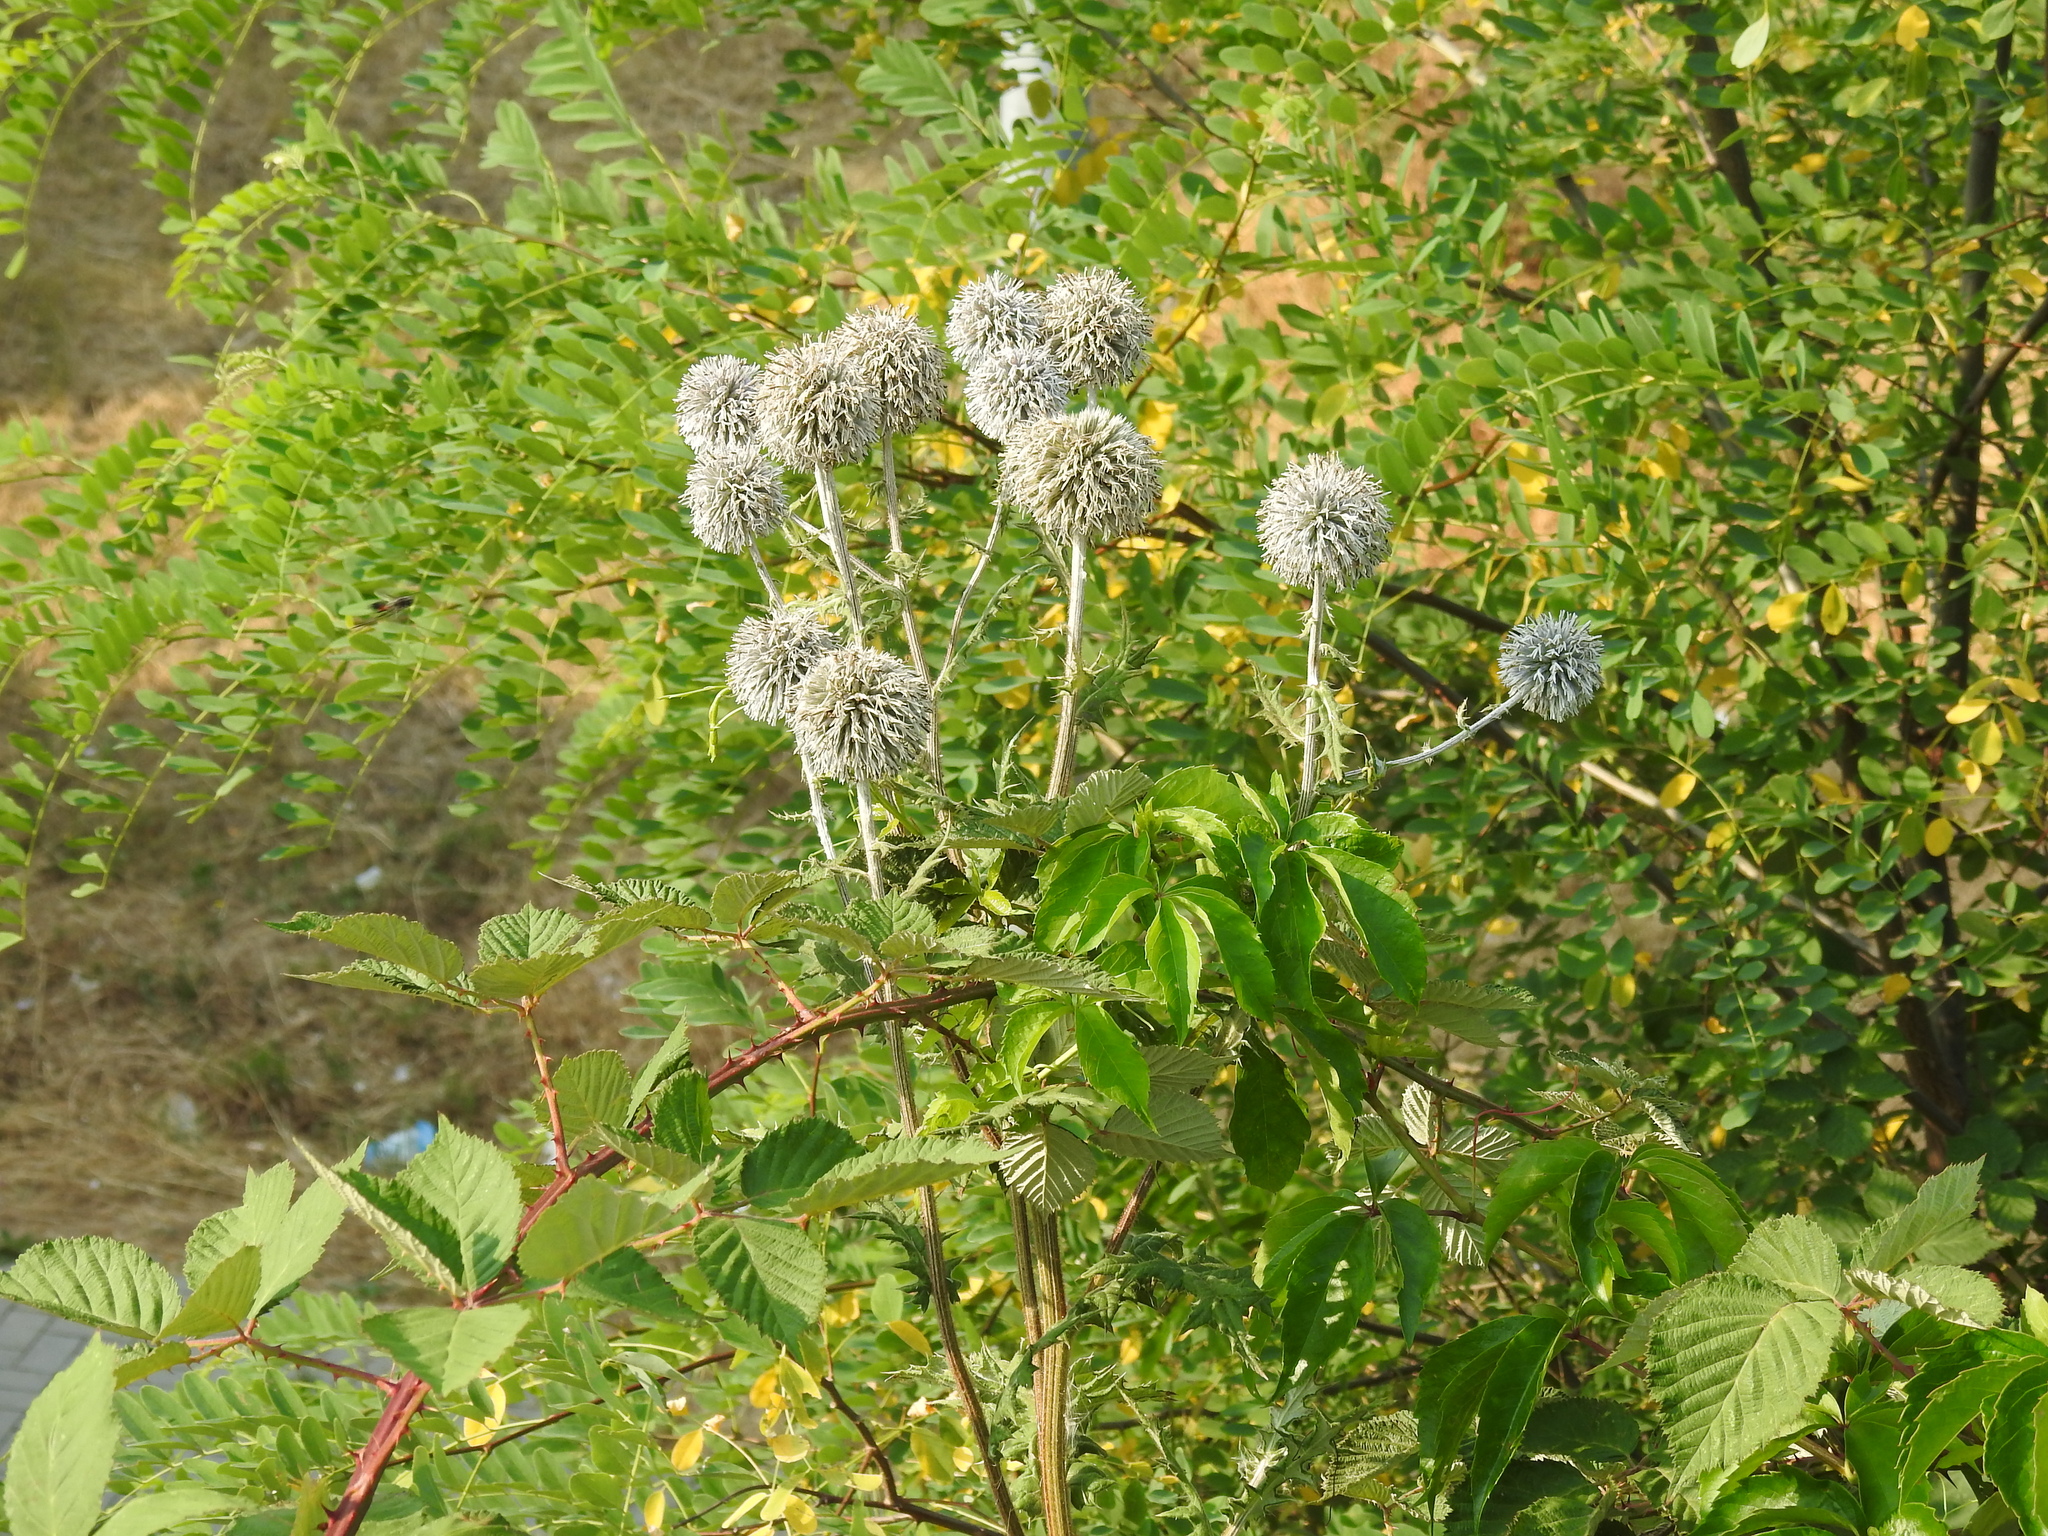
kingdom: Plantae
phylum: Tracheophyta
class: Magnoliopsida
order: Asterales
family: Asteraceae
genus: Echinops
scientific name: Echinops sphaerocephalus
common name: Glandular globe-thistle
